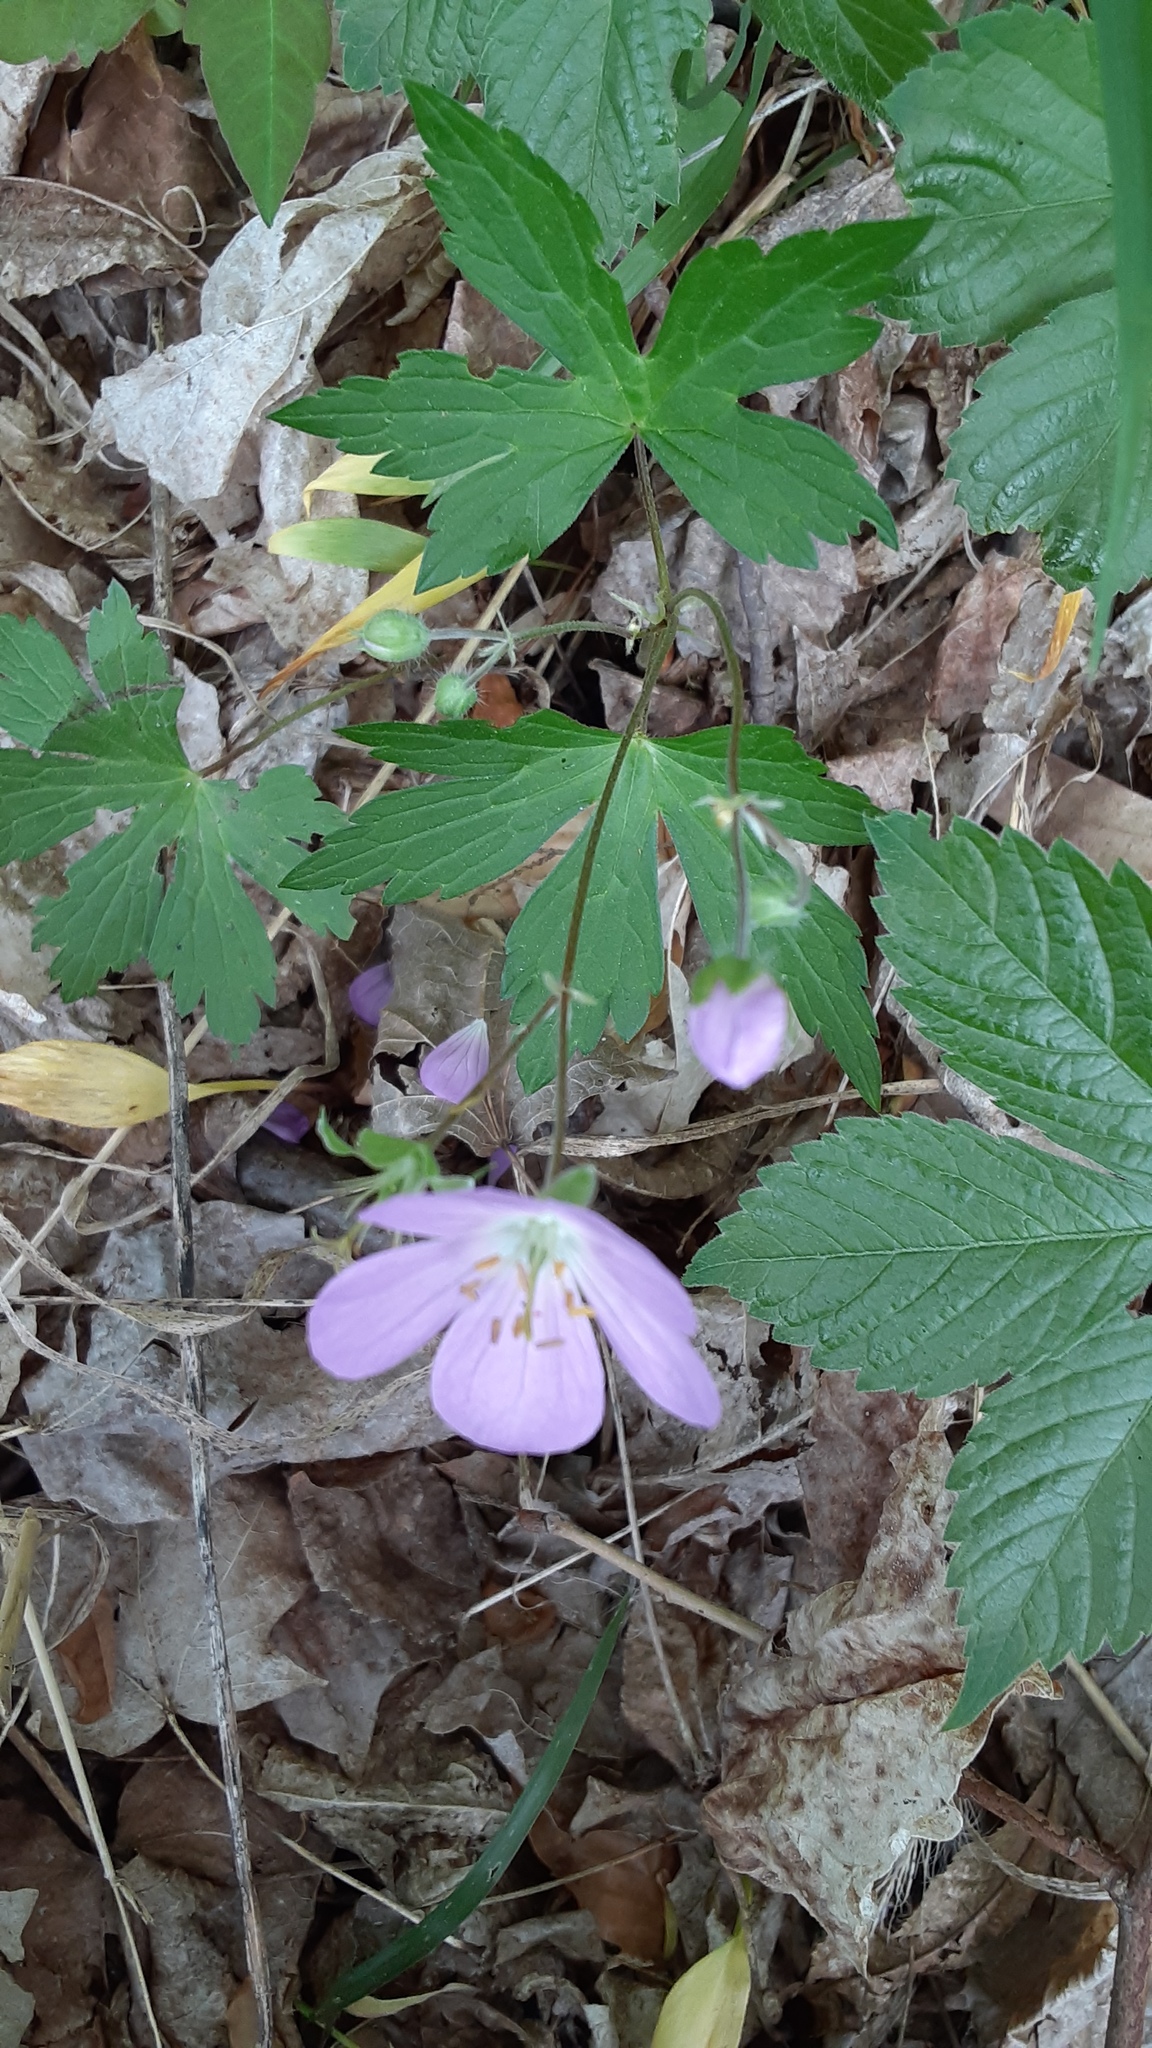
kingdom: Plantae
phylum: Tracheophyta
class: Magnoliopsida
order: Geraniales
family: Geraniaceae
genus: Geranium
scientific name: Geranium maculatum
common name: Spotted geranium
